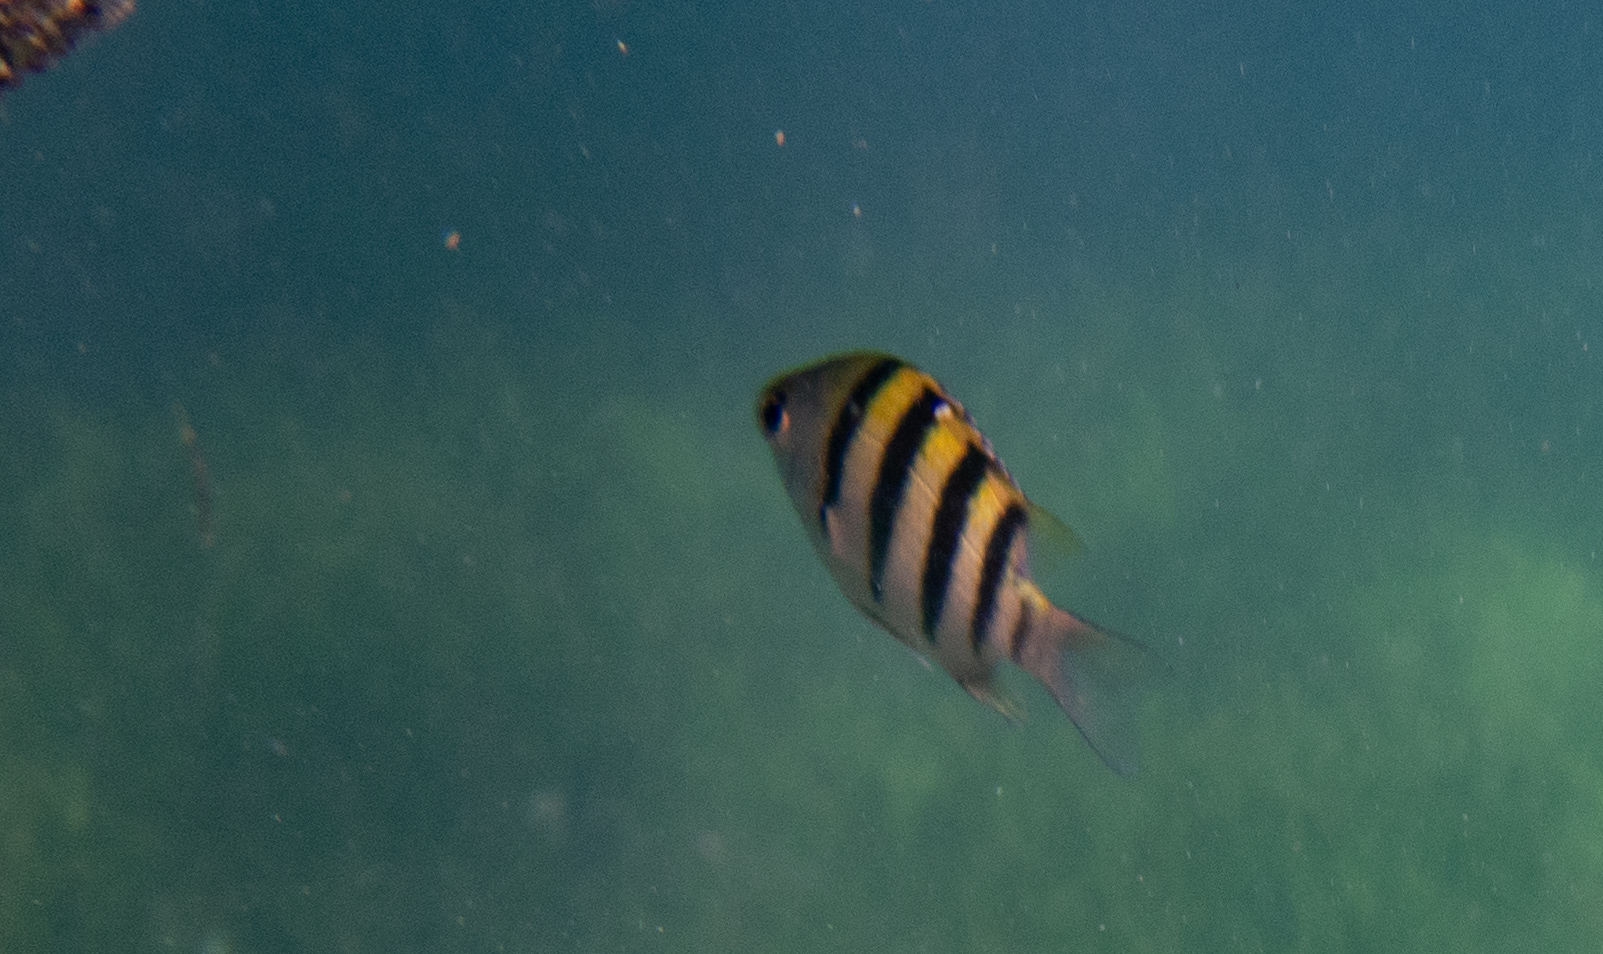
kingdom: Animalia
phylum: Chordata
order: Perciformes
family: Pomacentridae
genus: Abudefduf
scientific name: Abudefduf vaigiensis
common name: Indo-pacific sergeant
